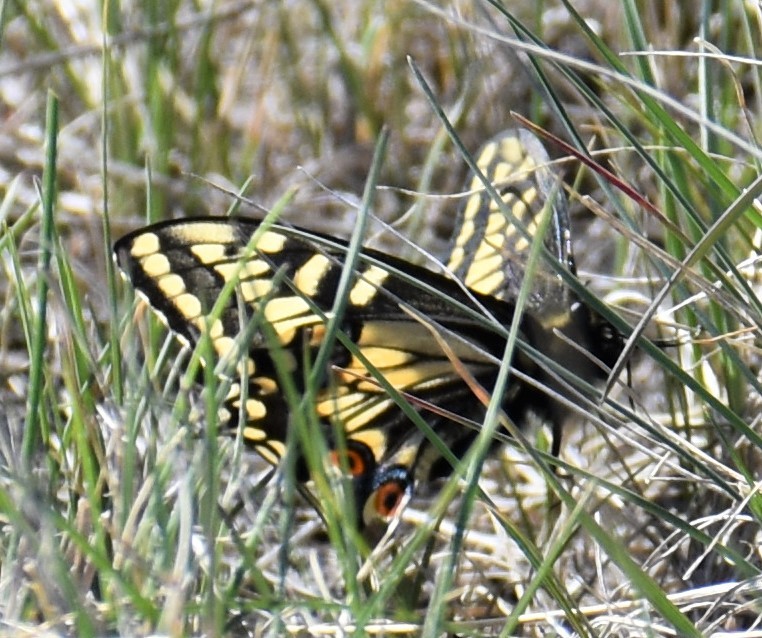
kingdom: Animalia
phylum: Arthropoda
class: Insecta
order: Lepidoptera
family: Papilionidae
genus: Papilio
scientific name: Papilio zelicaon
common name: Anise swallowtail
